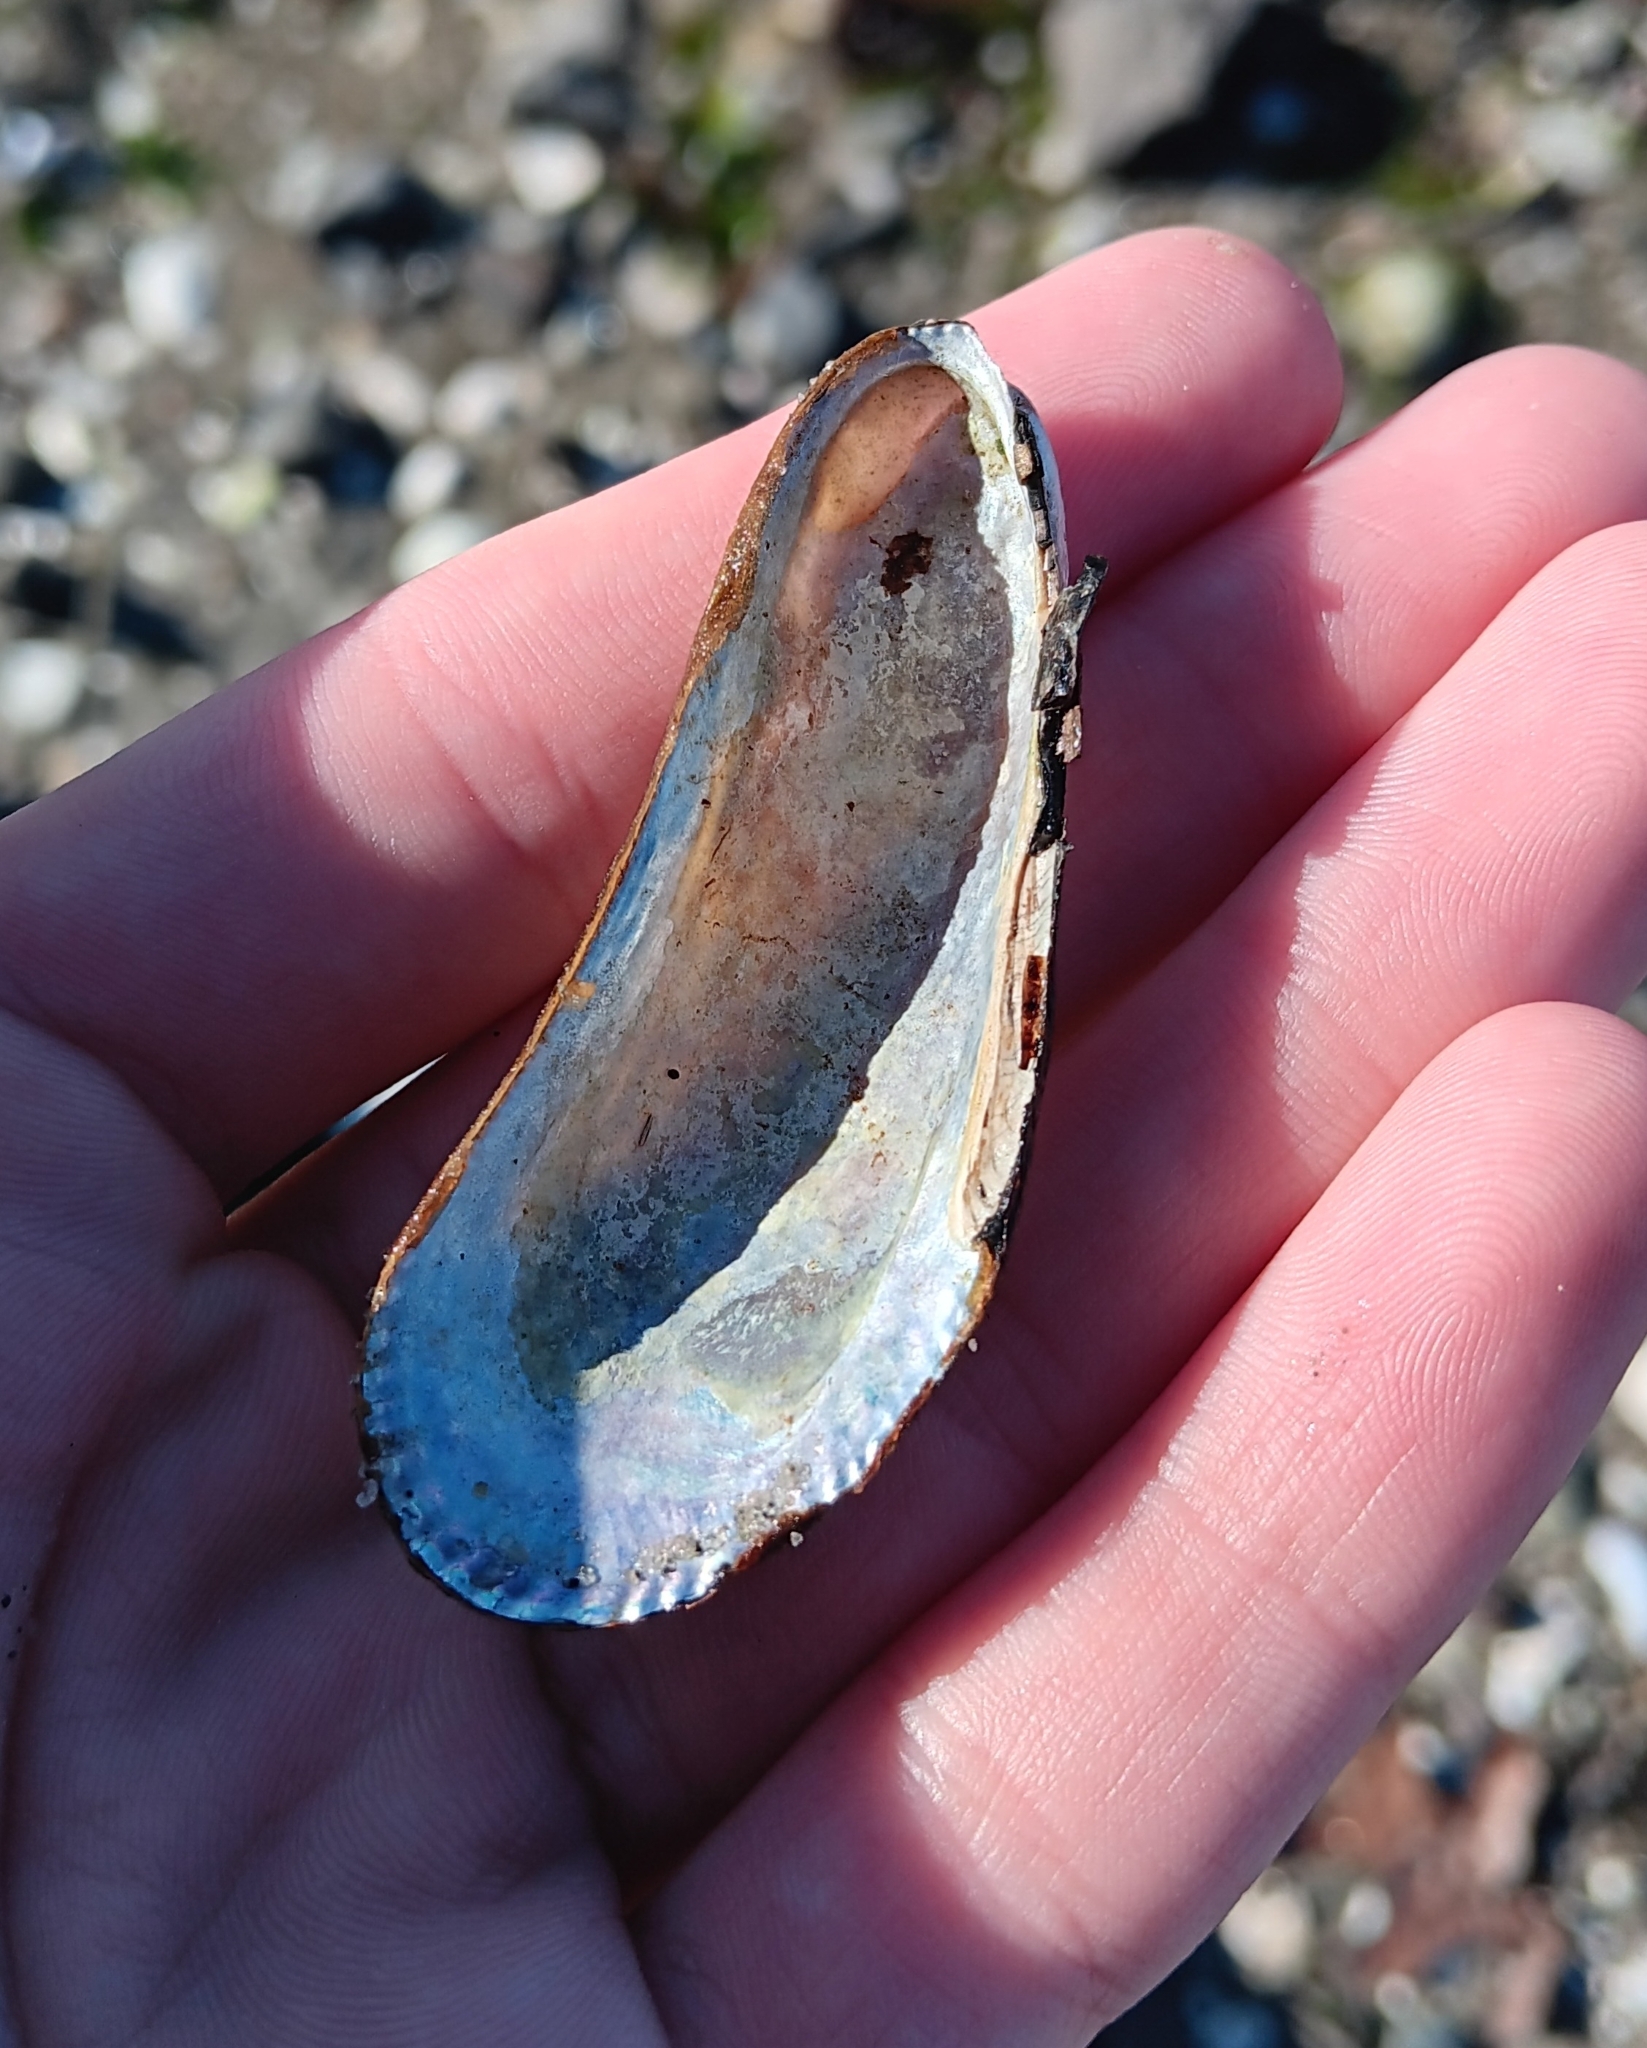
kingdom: Animalia
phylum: Mollusca
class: Bivalvia
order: Mytilida
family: Mytilidae
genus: Geukensia
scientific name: Geukensia demissa
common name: Ribbed mussel
